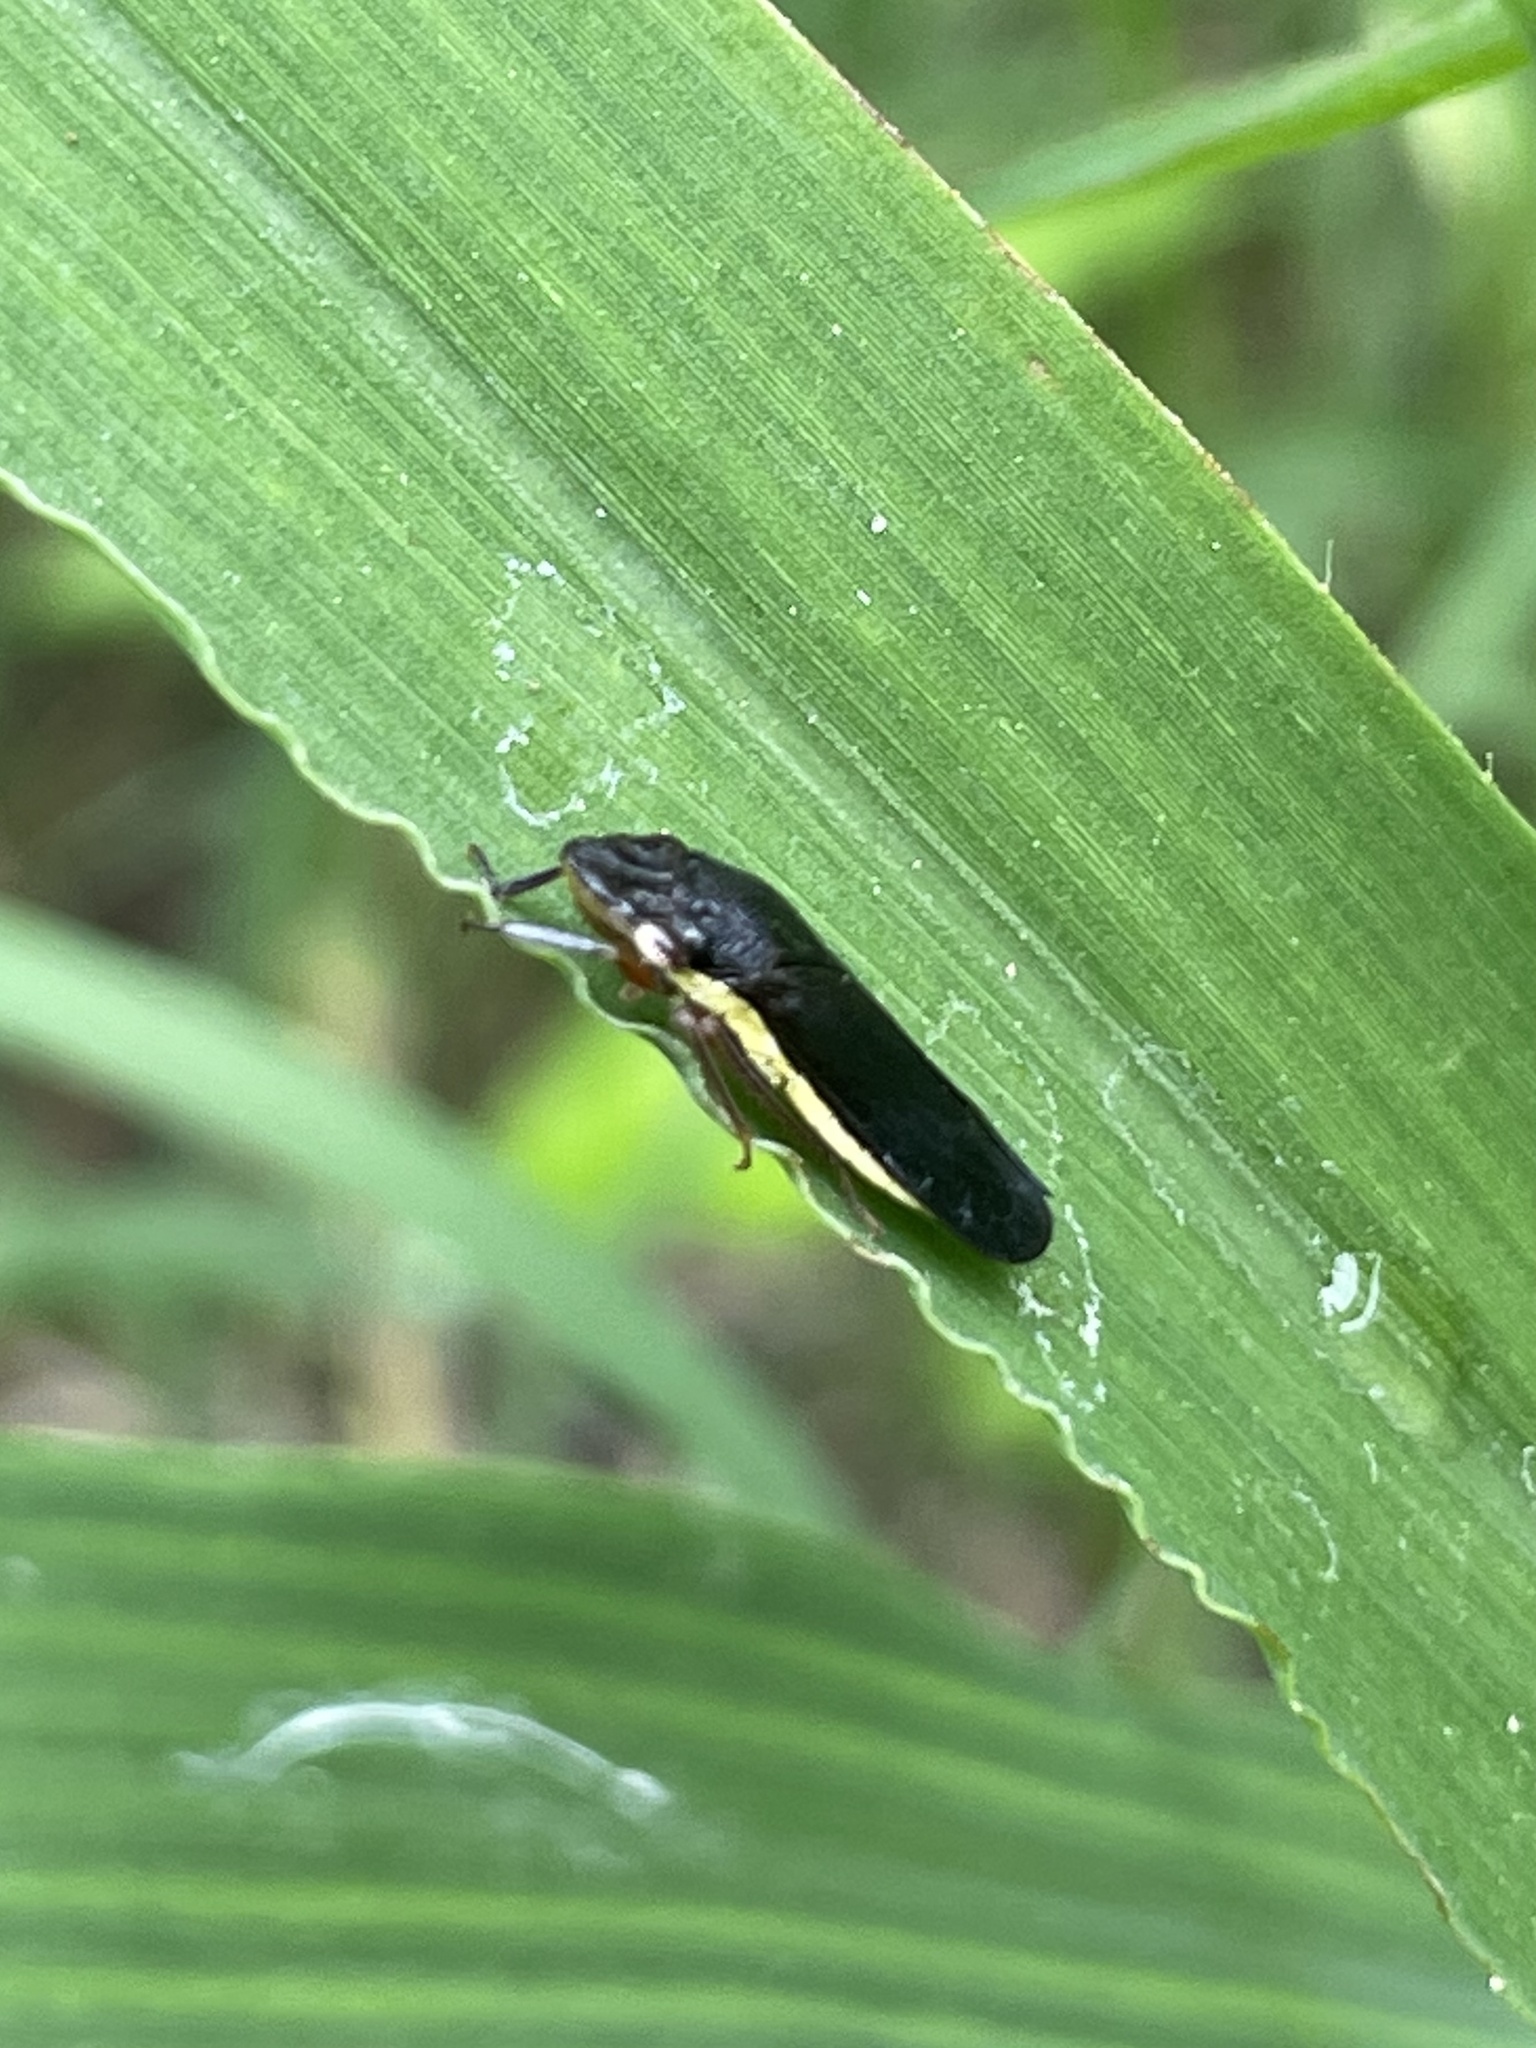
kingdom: Animalia
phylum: Arthropoda
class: Insecta
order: Hemiptera
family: Cicadellidae
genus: Homalodisca
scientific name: Homalodisca insolita
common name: Johnson grass sharpshooter
